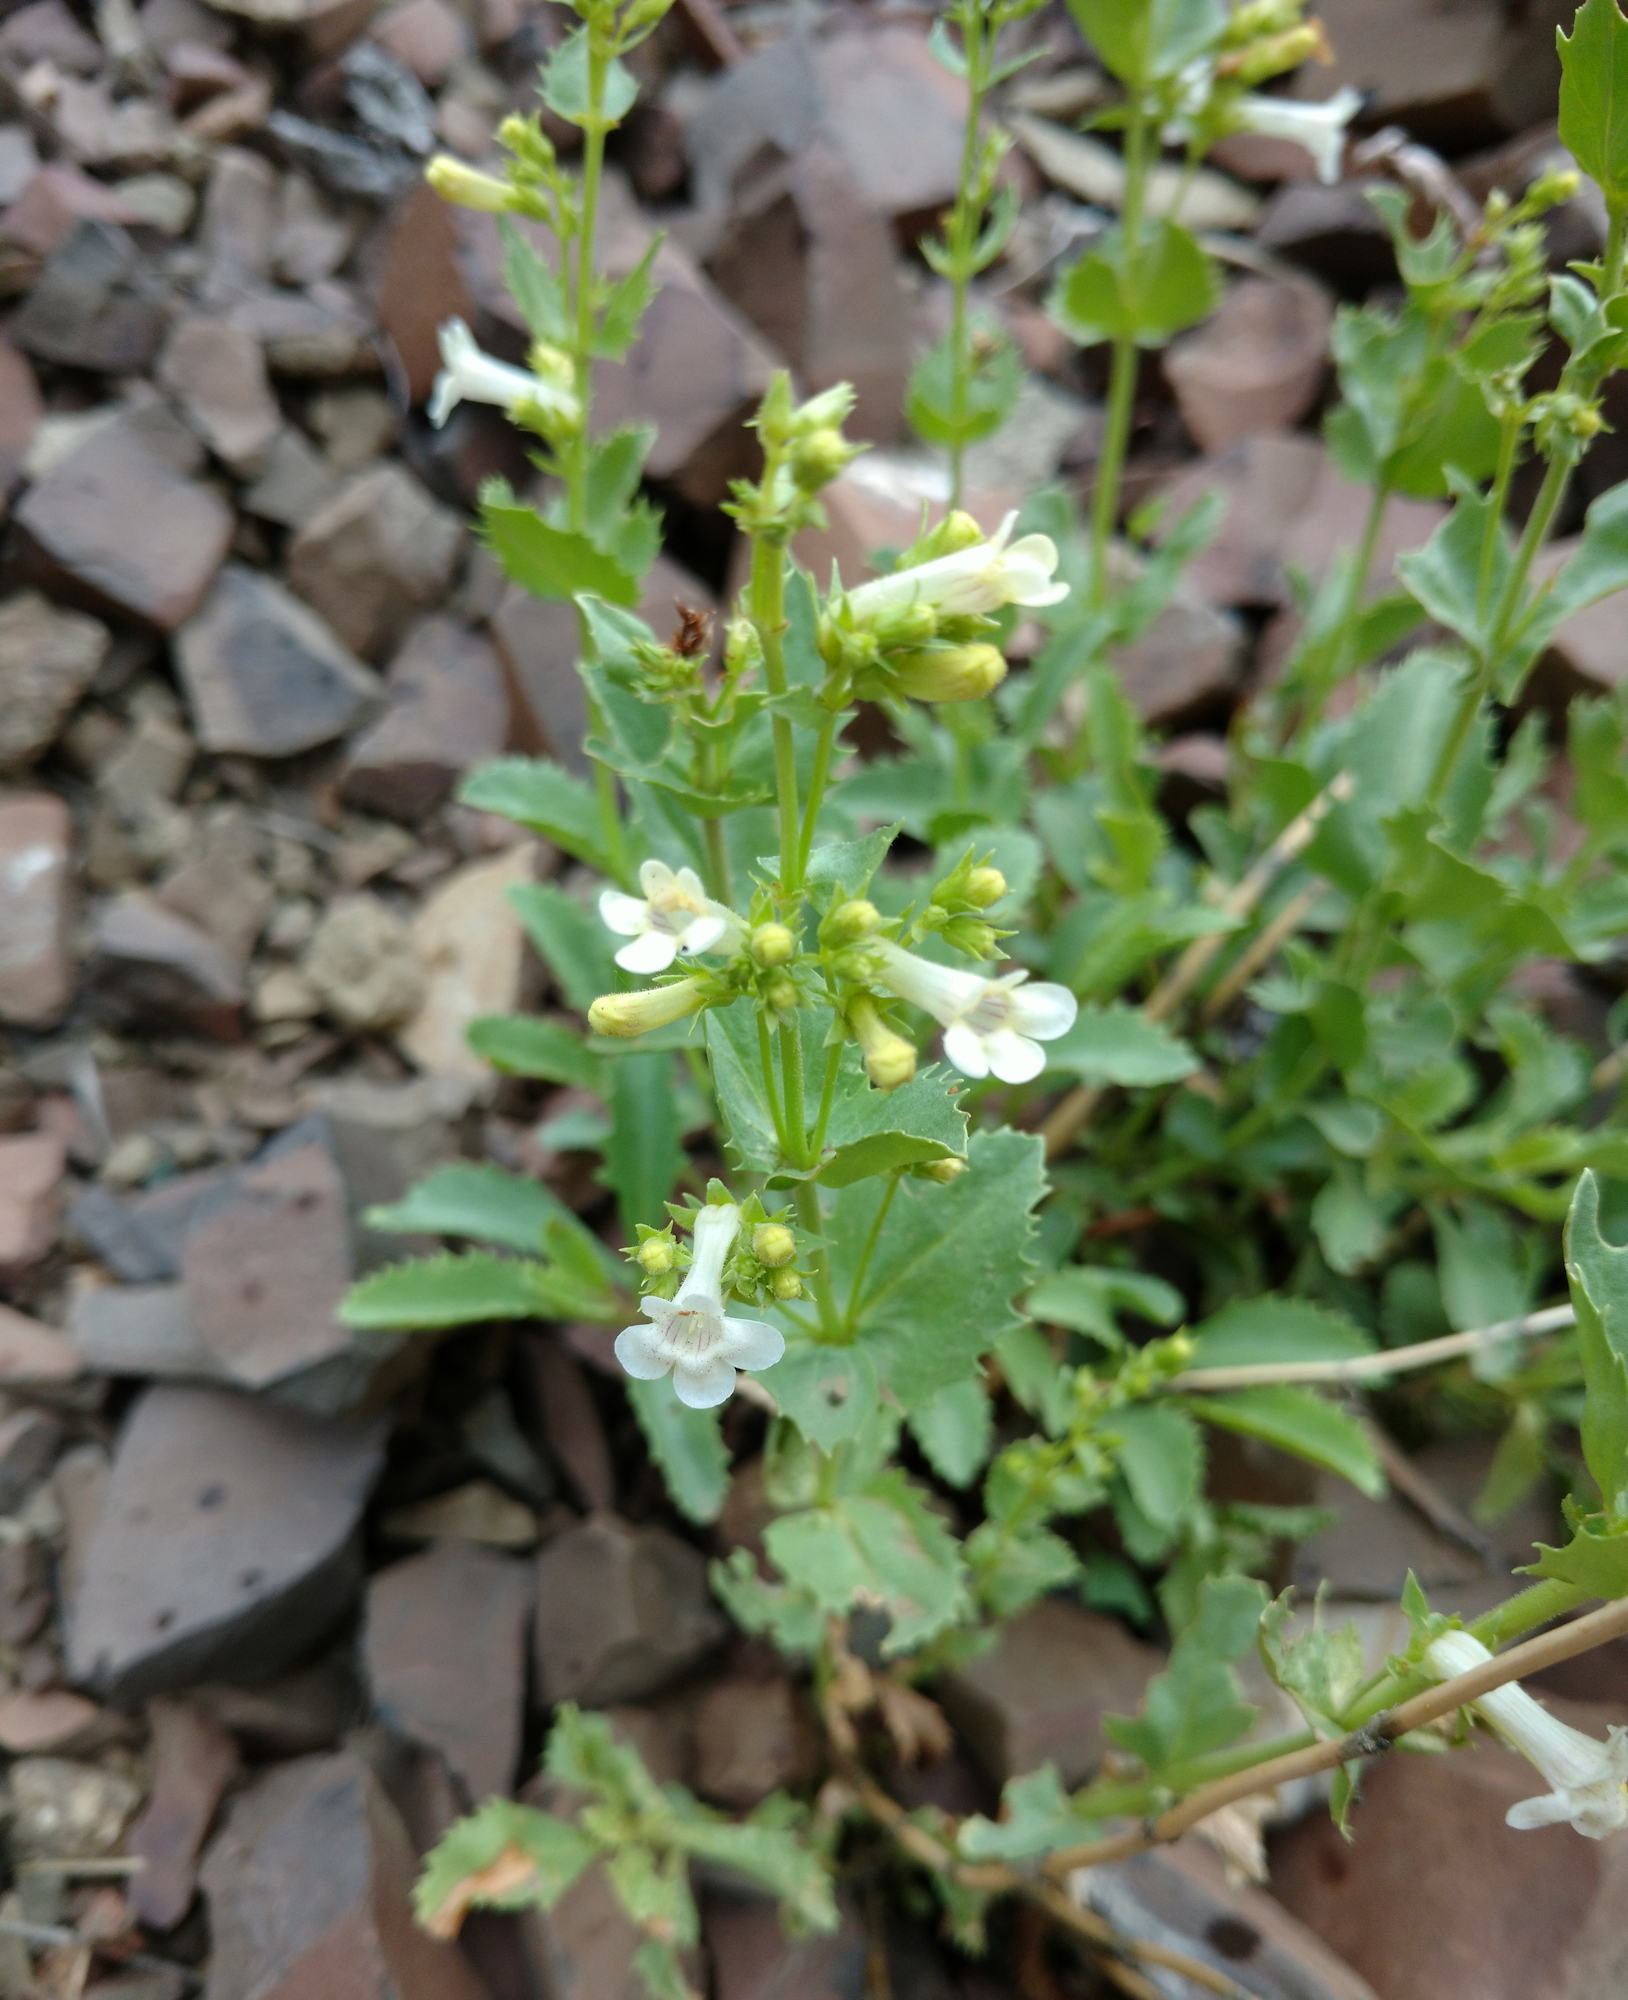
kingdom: Plantae
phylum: Tracheophyta
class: Magnoliopsida
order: Lamiales
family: Plantaginaceae
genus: Penstemon
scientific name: Penstemon deustus
